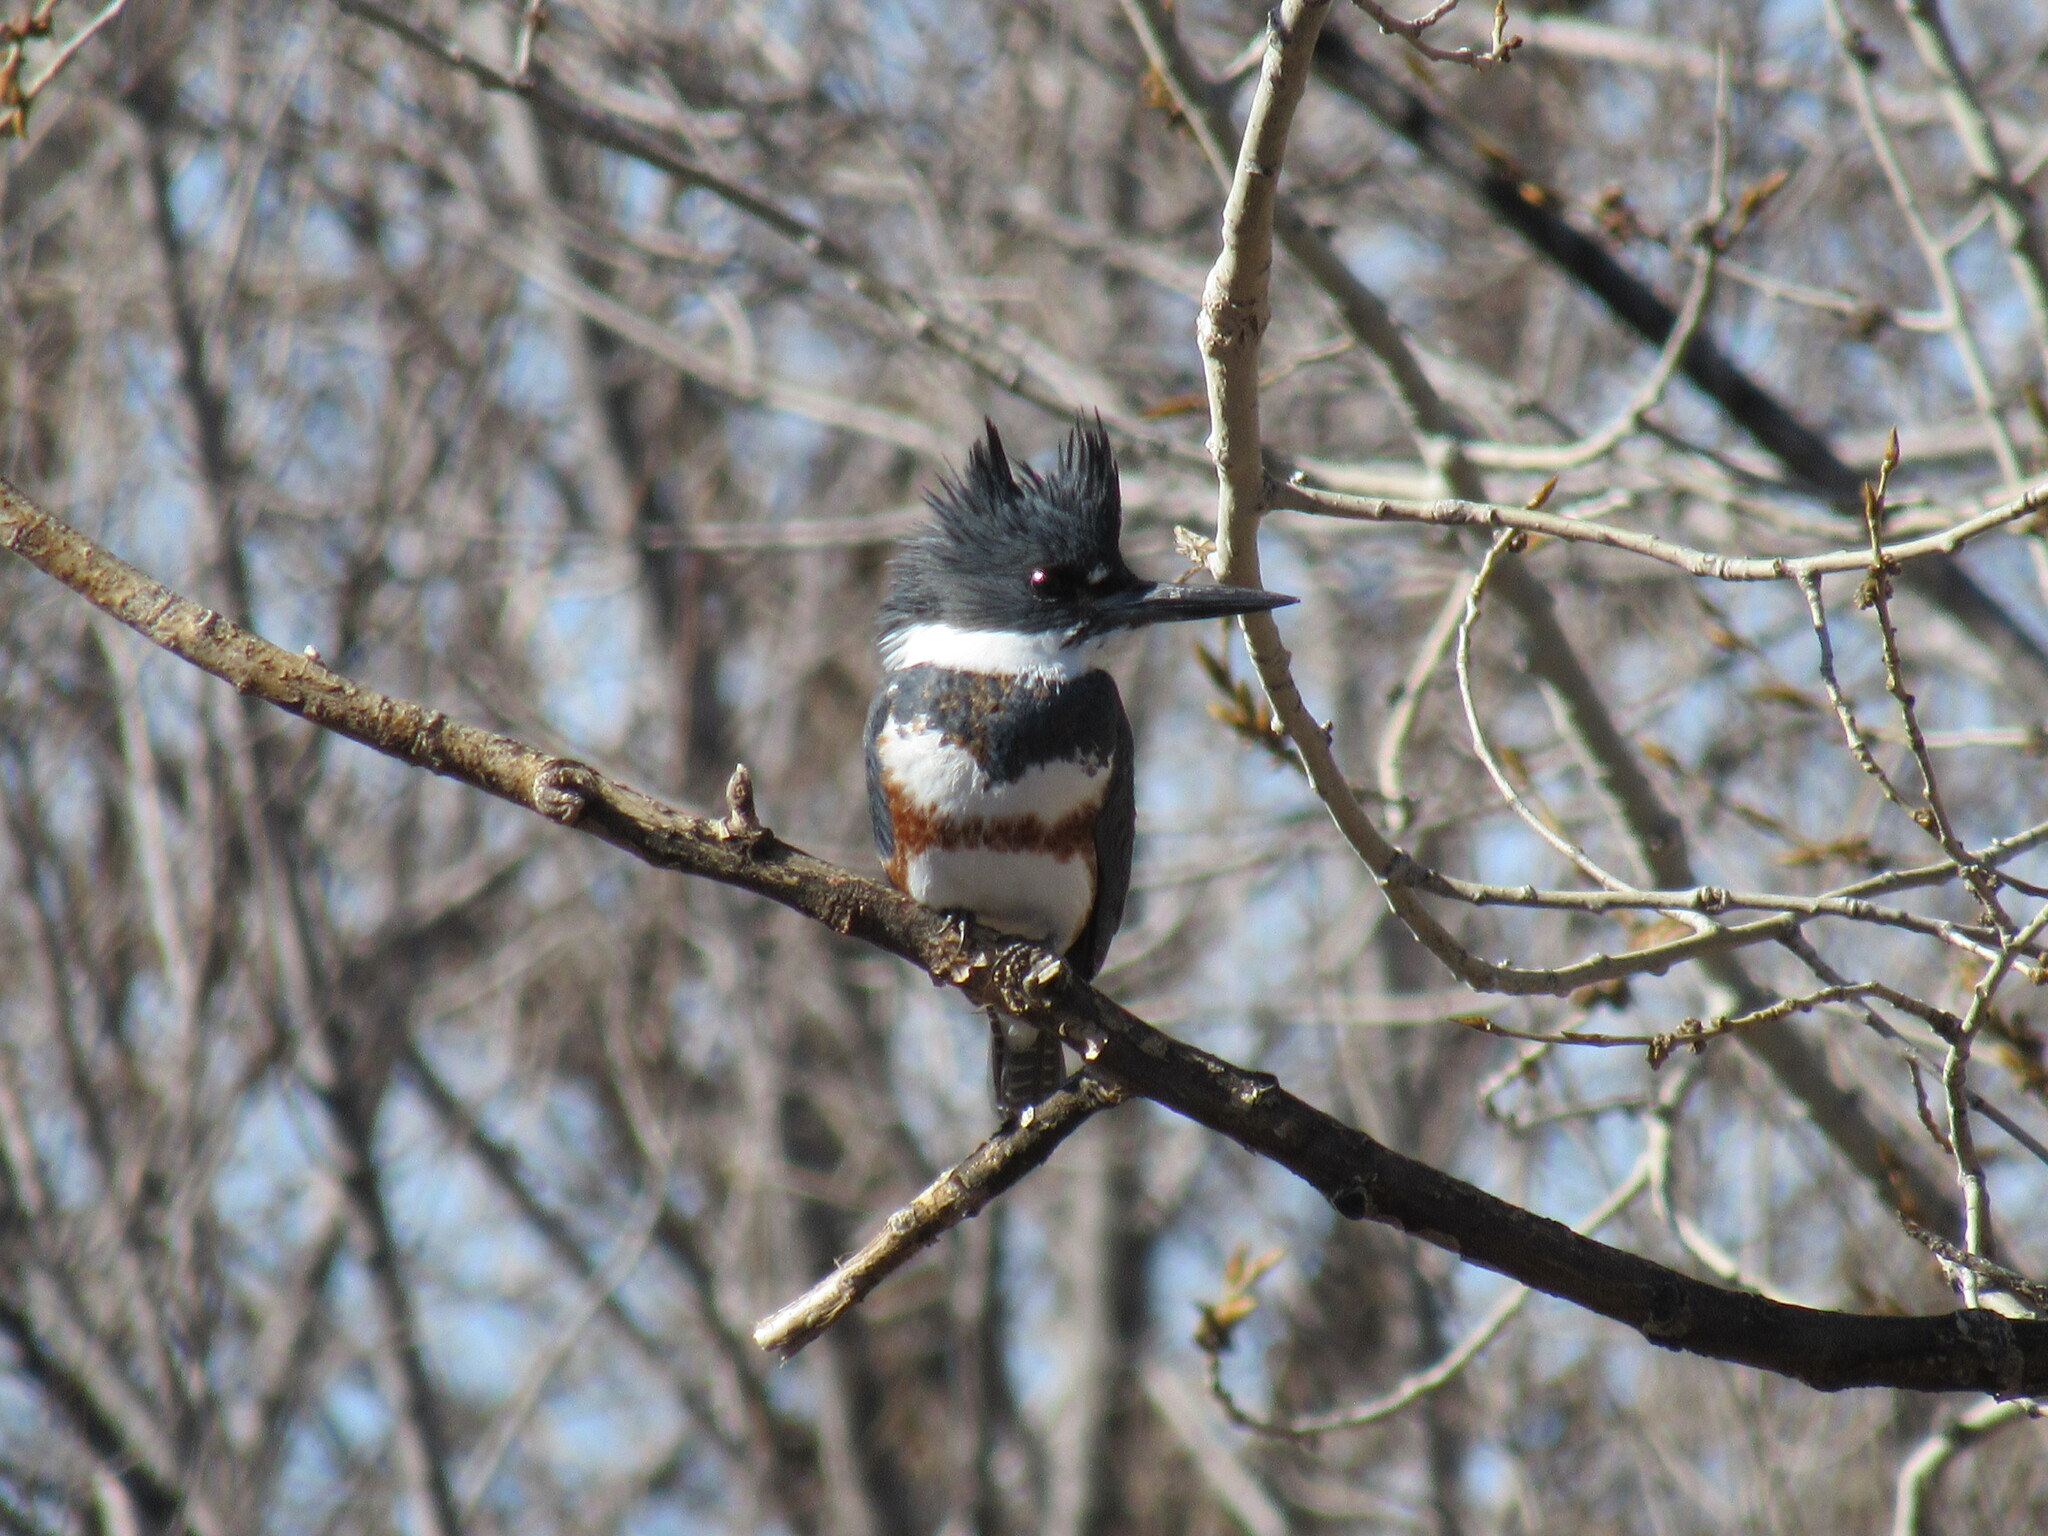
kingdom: Animalia
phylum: Chordata
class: Aves
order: Coraciiformes
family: Alcedinidae
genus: Megaceryle
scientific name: Megaceryle alcyon
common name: Belted kingfisher
